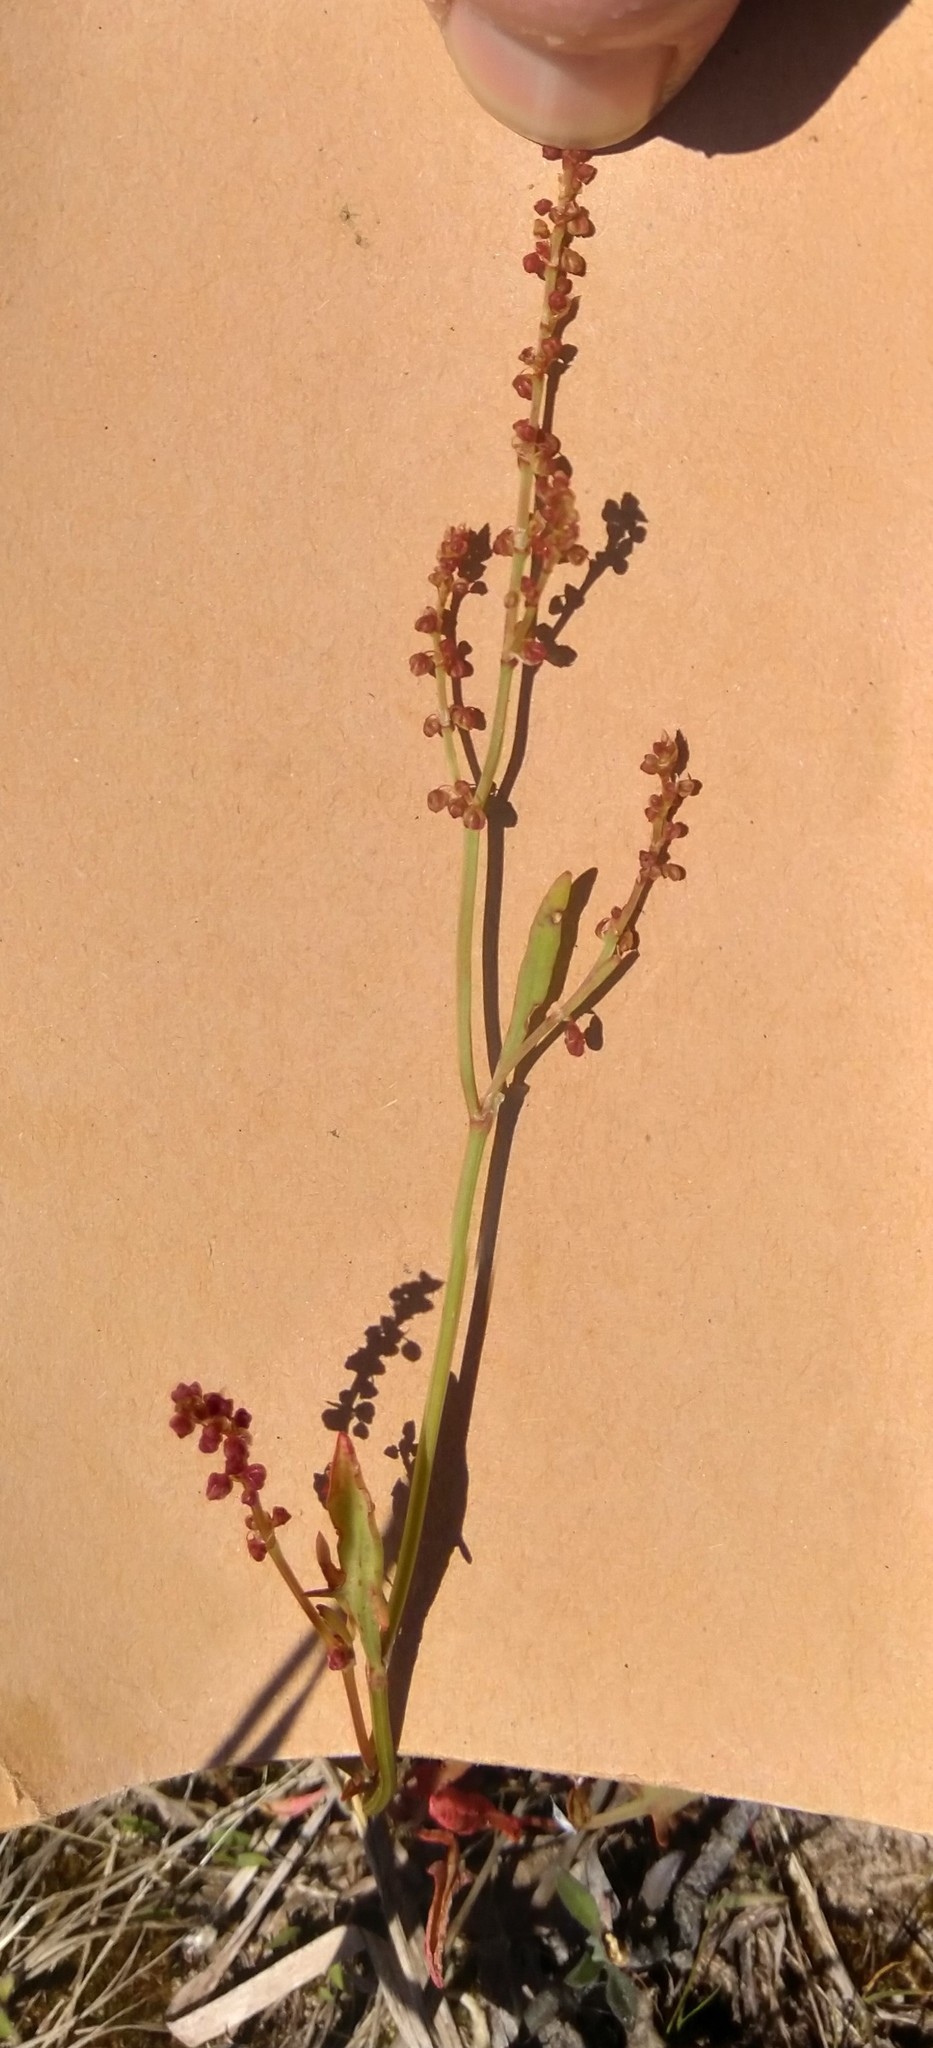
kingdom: Plantae
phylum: Tracheophyta
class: Magnoliopsida
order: Caryophyllales
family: Polygonaceae
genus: Rumex
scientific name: Rumex acetosella
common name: Common sheep sorrel
